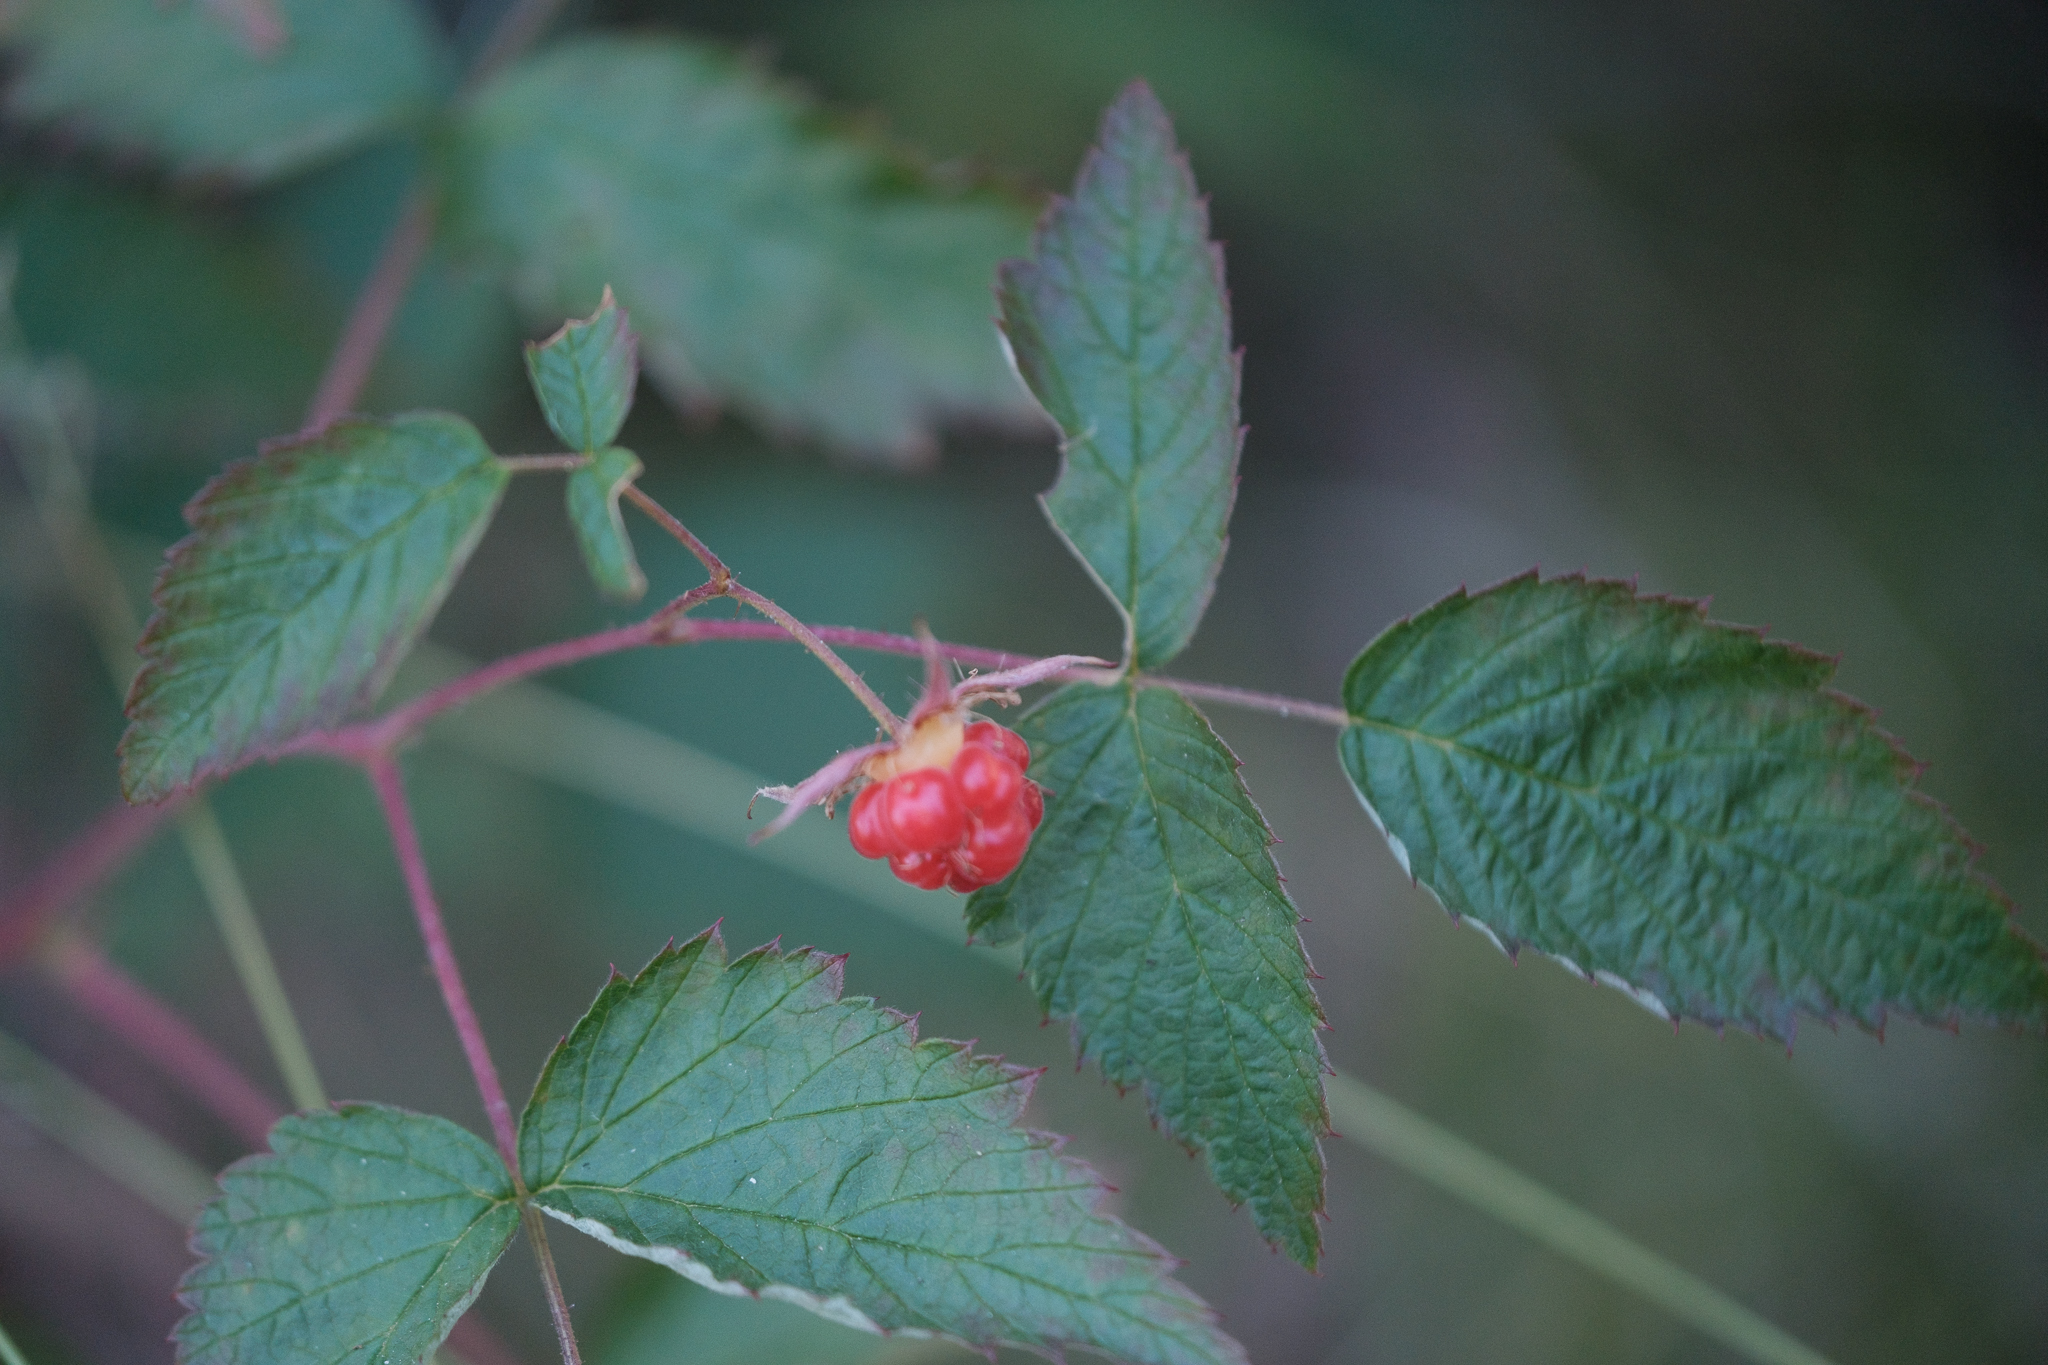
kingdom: Plantae
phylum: Tracheophyta
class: Magnoliopsida
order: Rosales
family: Rosaceae
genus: Rubus
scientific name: Rubus idaeus
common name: Raspberry
